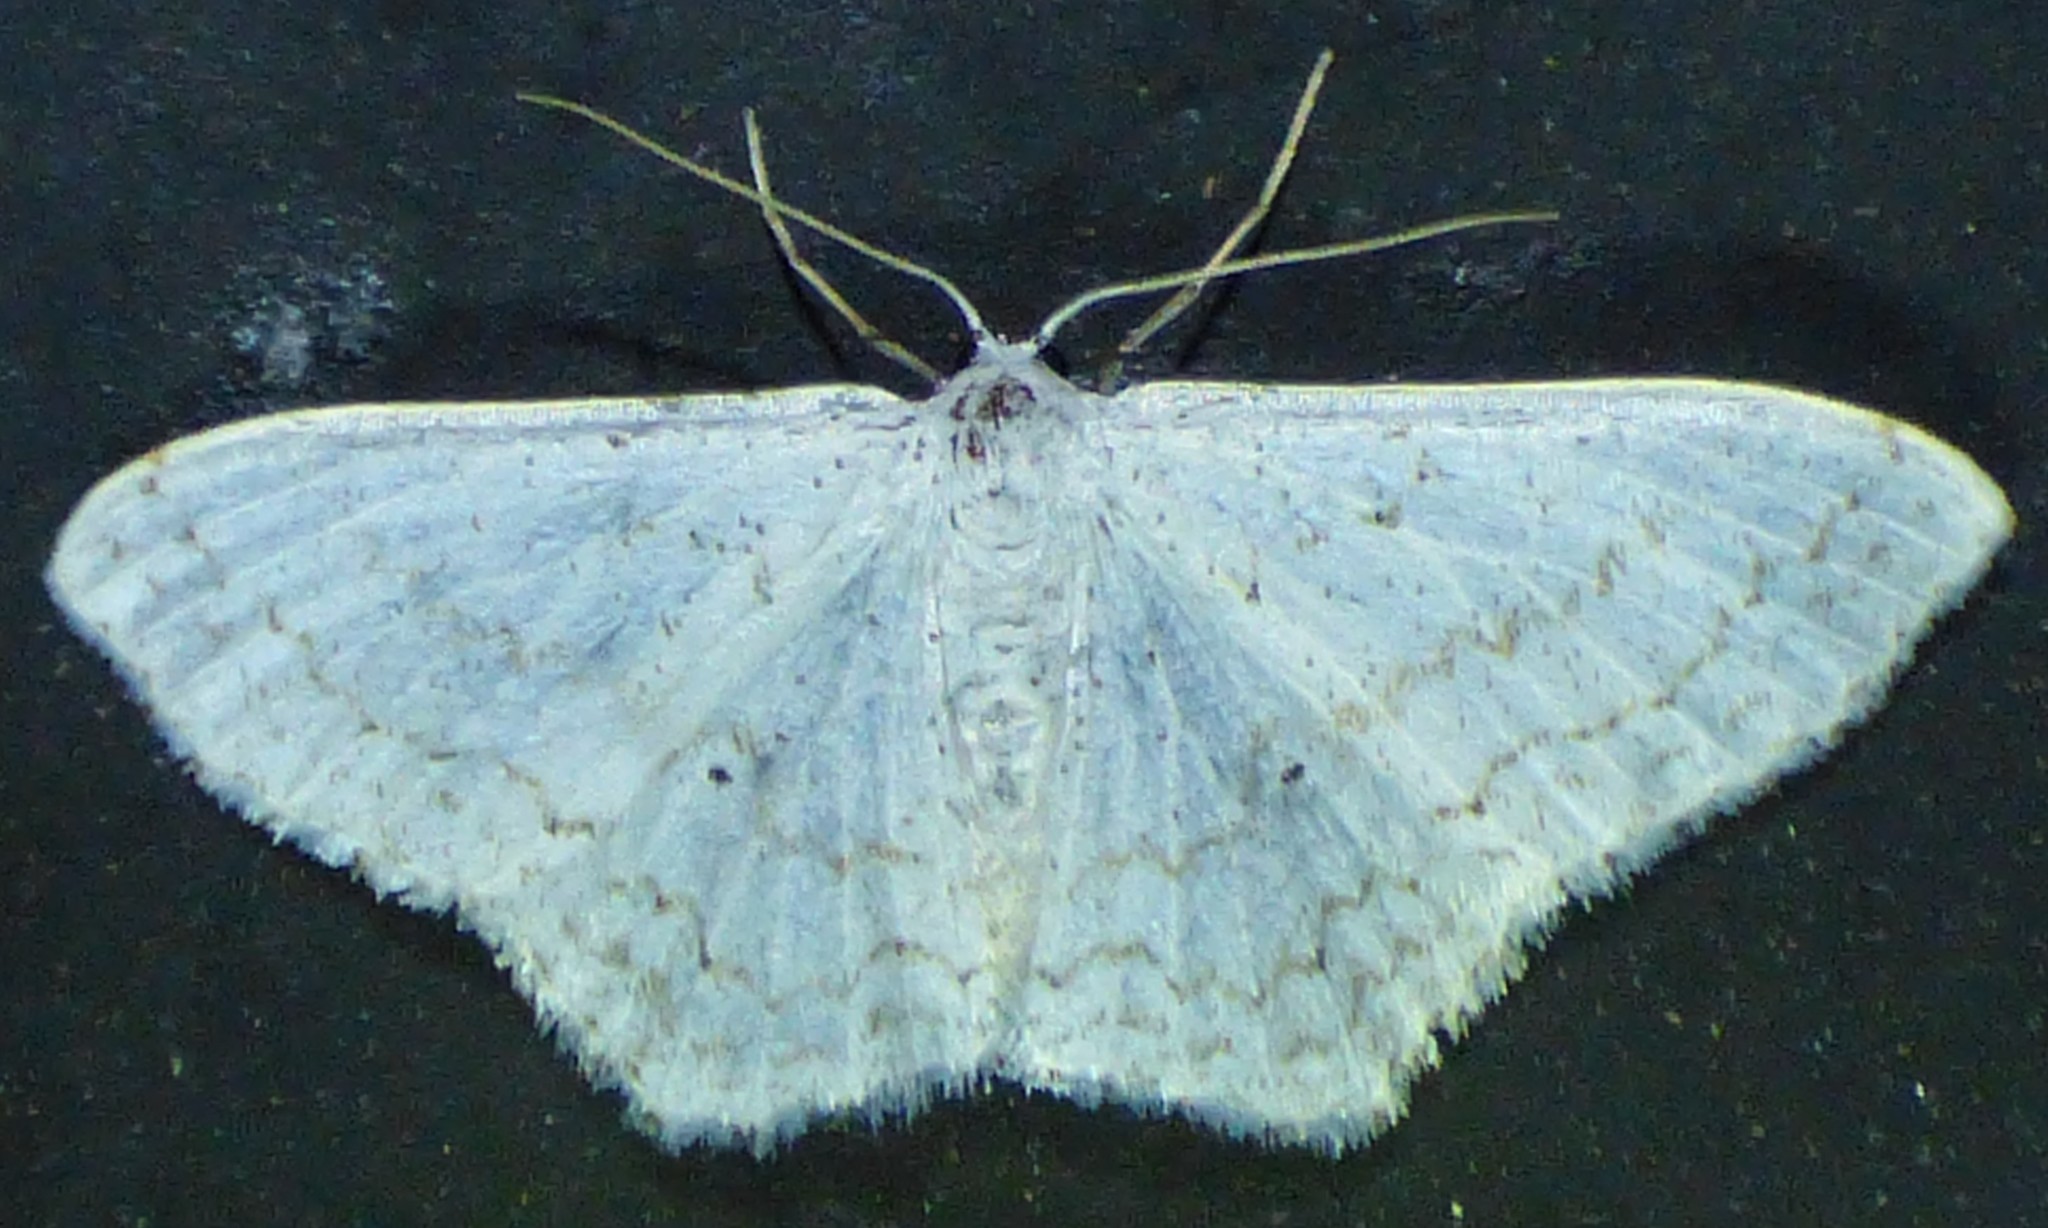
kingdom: Animalia
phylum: Arthropoda
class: Insecta
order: Lepidoptera
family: Geometridae
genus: Idaea
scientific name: Idaea tacturata
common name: Dot-lined wave
